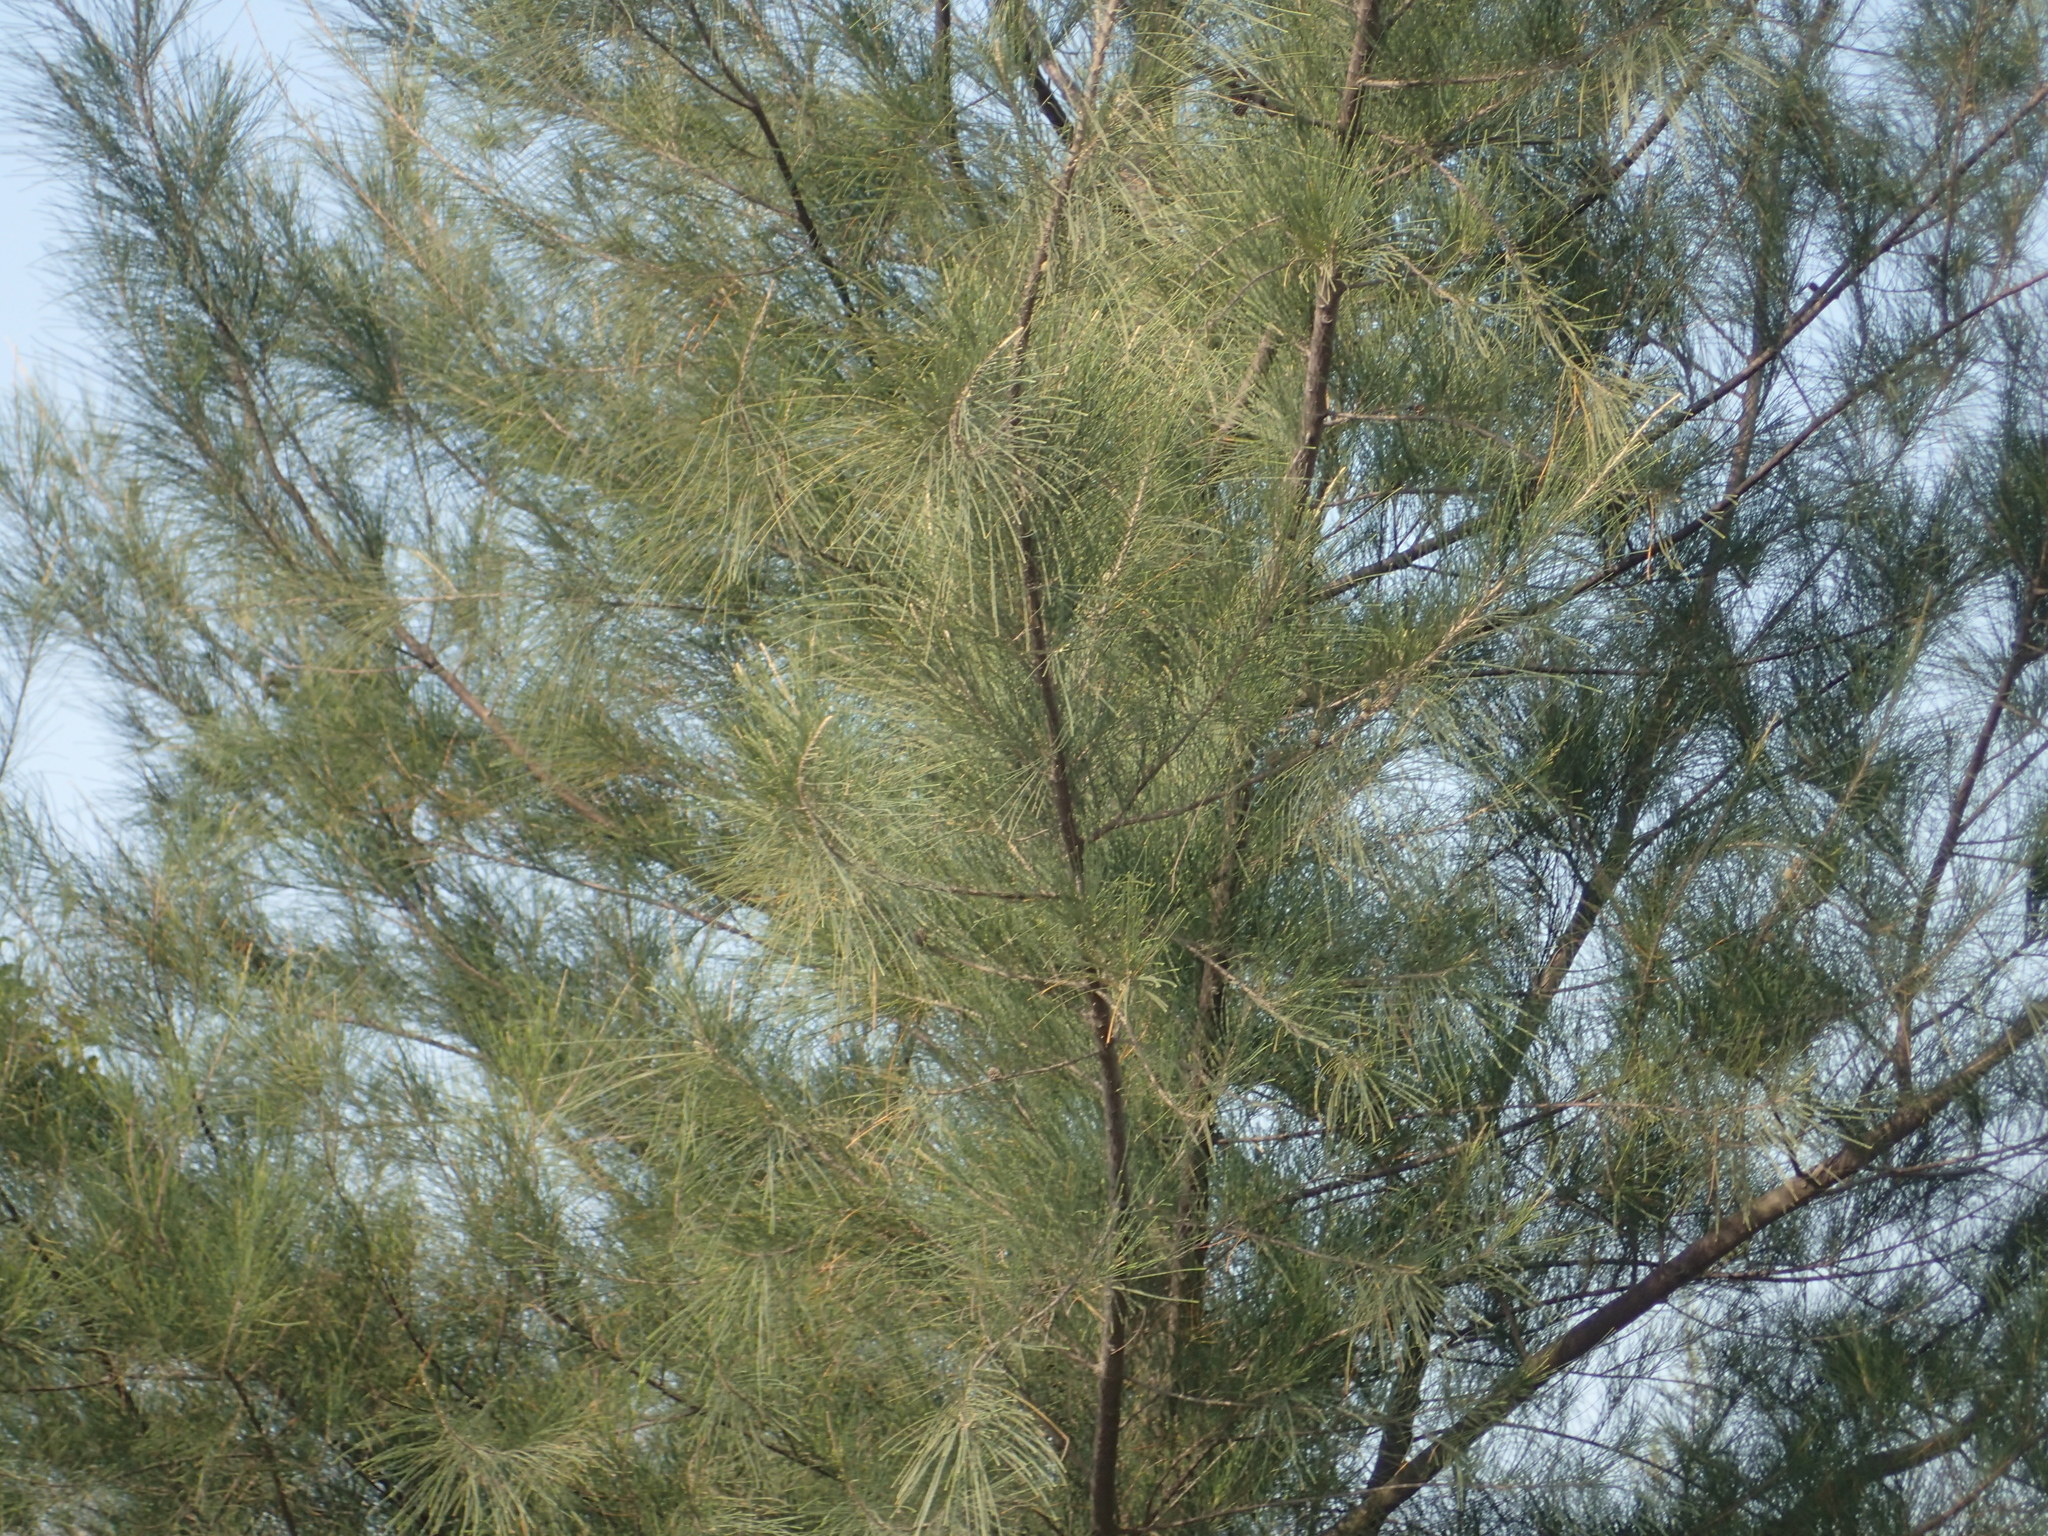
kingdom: Plantae
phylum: Tracheophyta
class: Magnoliopsida
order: Fagales
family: Casuarinaceae
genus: Casuarina
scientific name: Casuarina equisetifolia
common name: Beach sheoak
